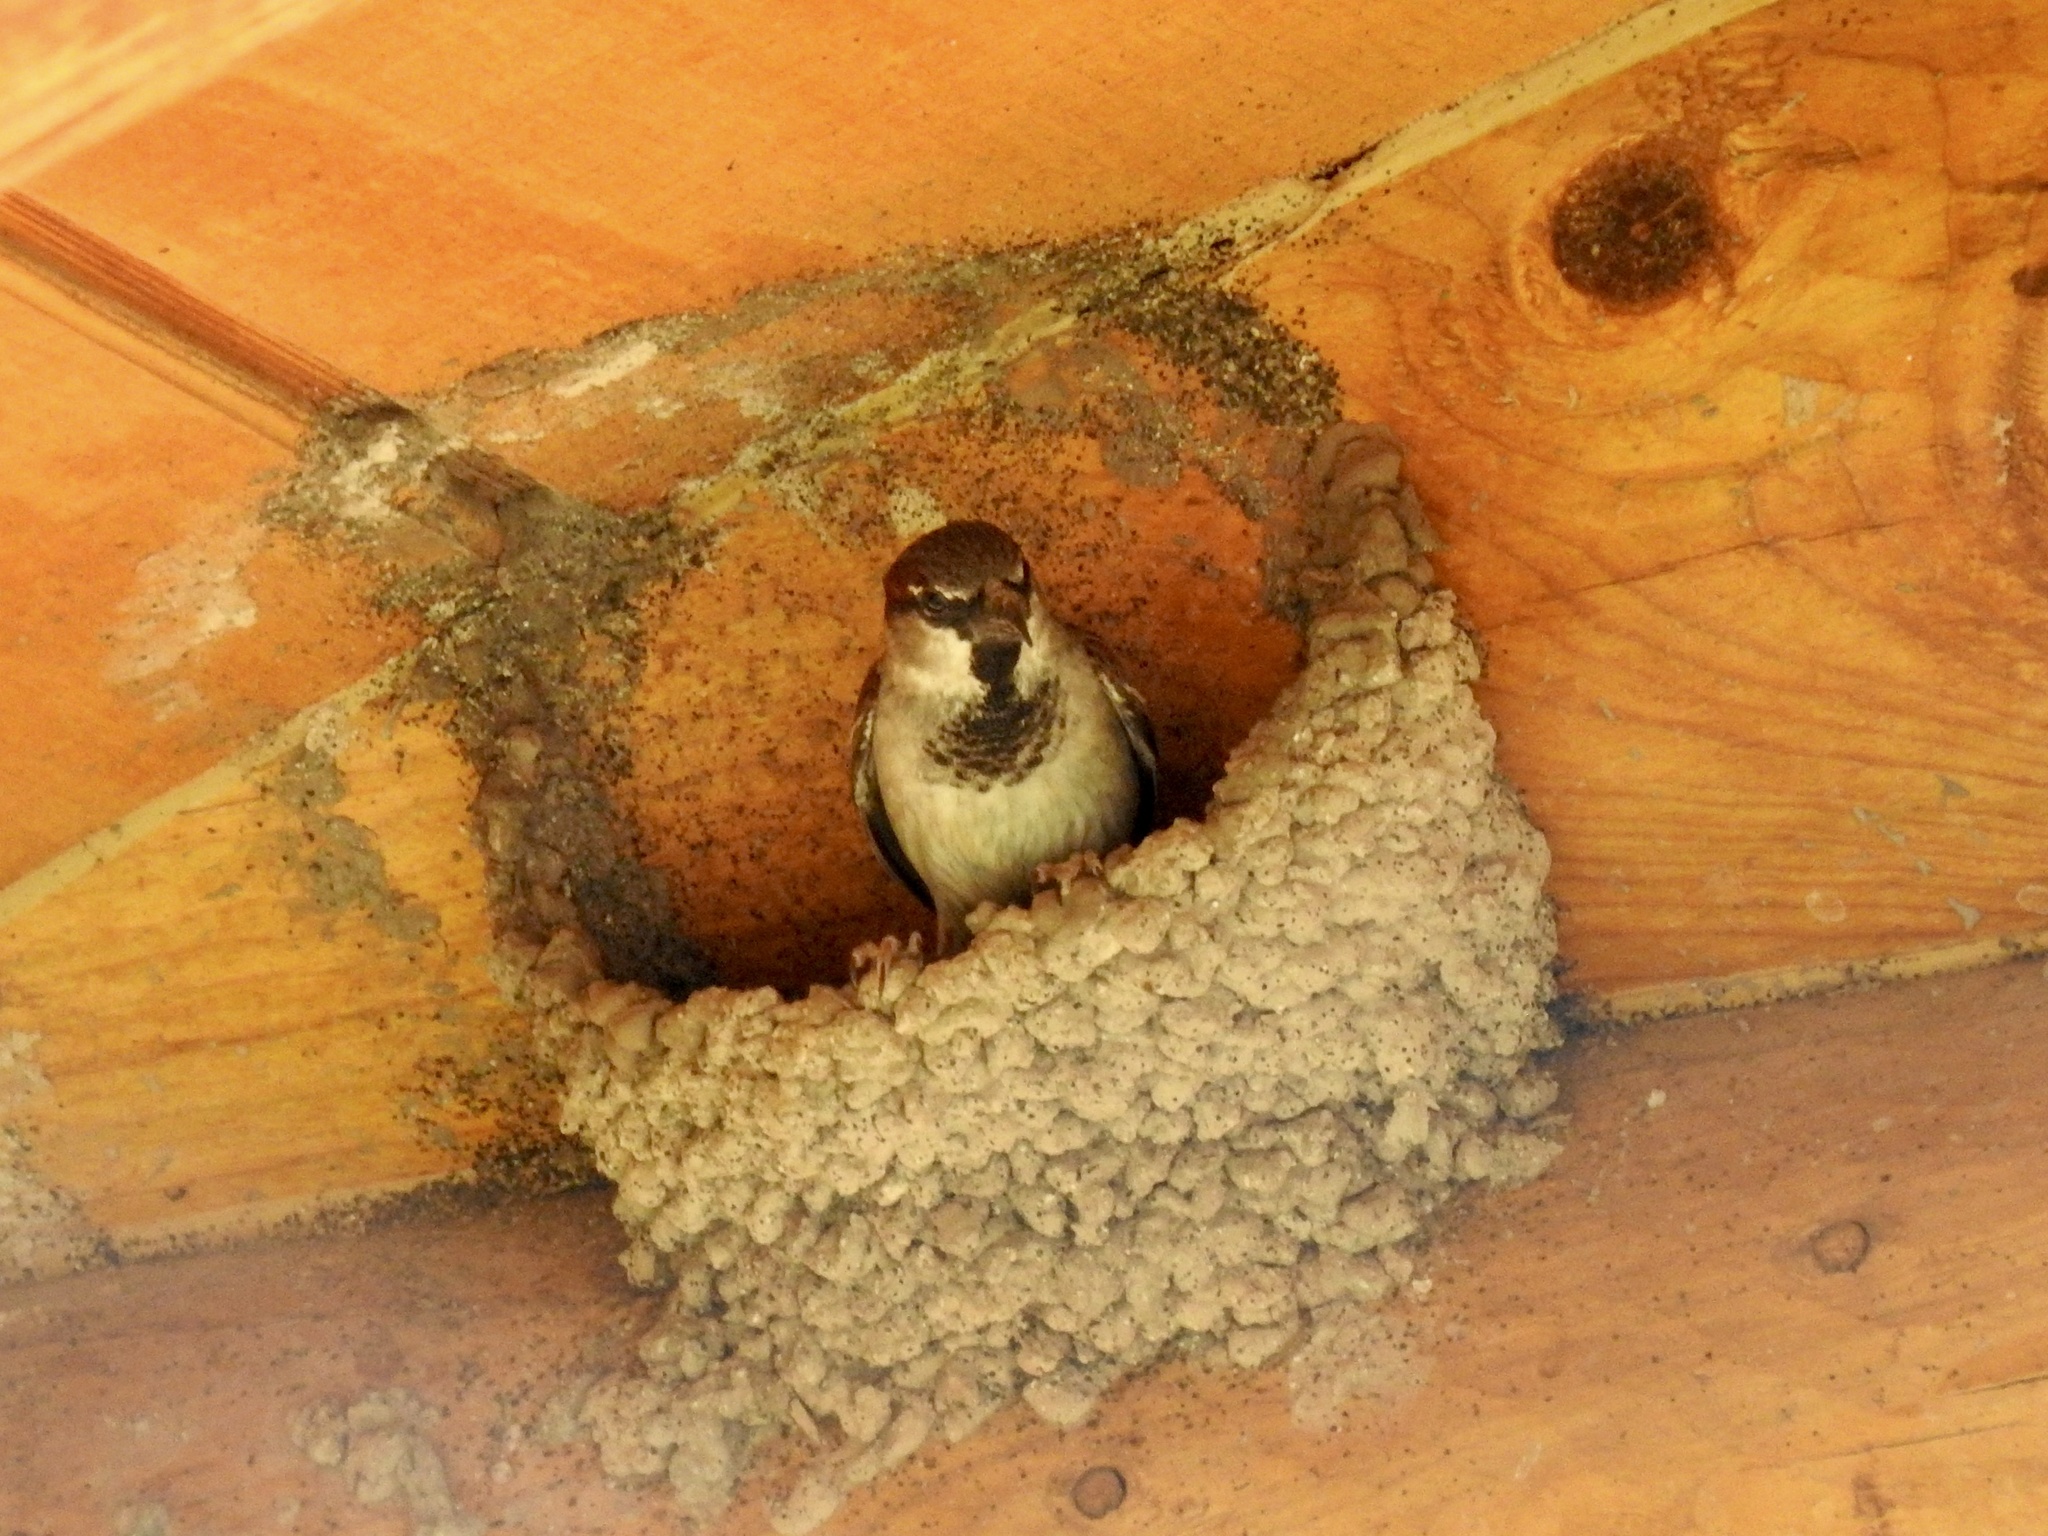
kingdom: Animalia
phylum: Chordata
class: Aves
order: Passeriformes
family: Passeridae
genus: Passer
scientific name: Passer domesticus
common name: House sparrow
